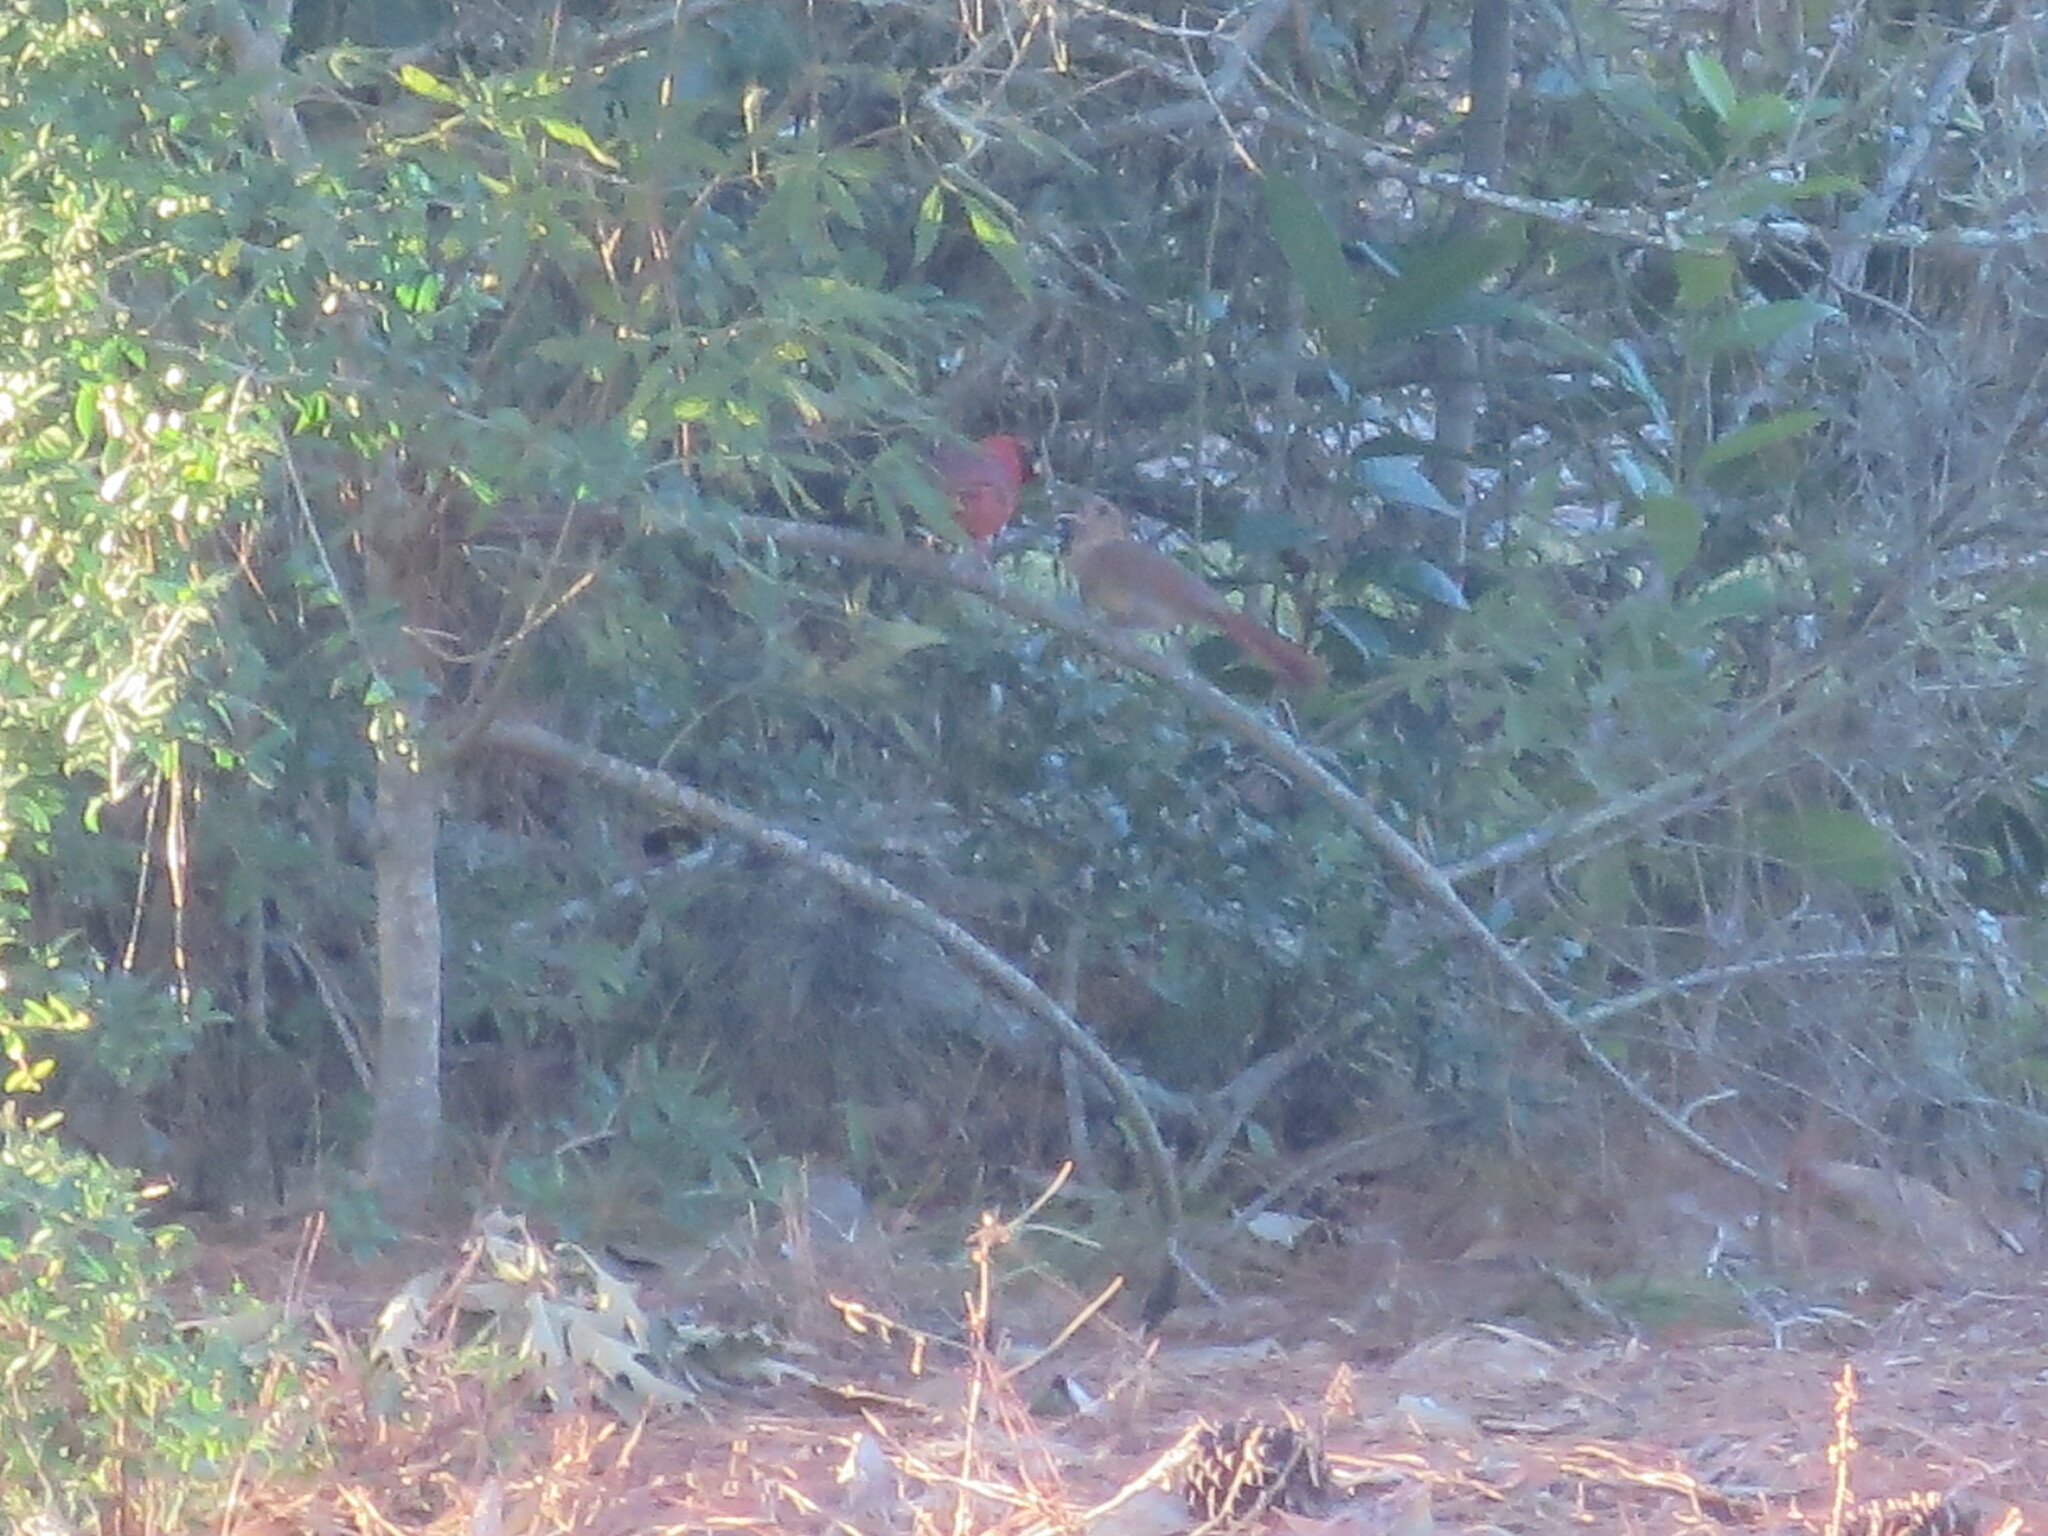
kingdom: Animalia
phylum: Chordata
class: Aves
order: Passeriformes
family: Cardinalidae
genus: Cardinalis
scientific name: Cardinalis cardinalis
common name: Northern cardinal
